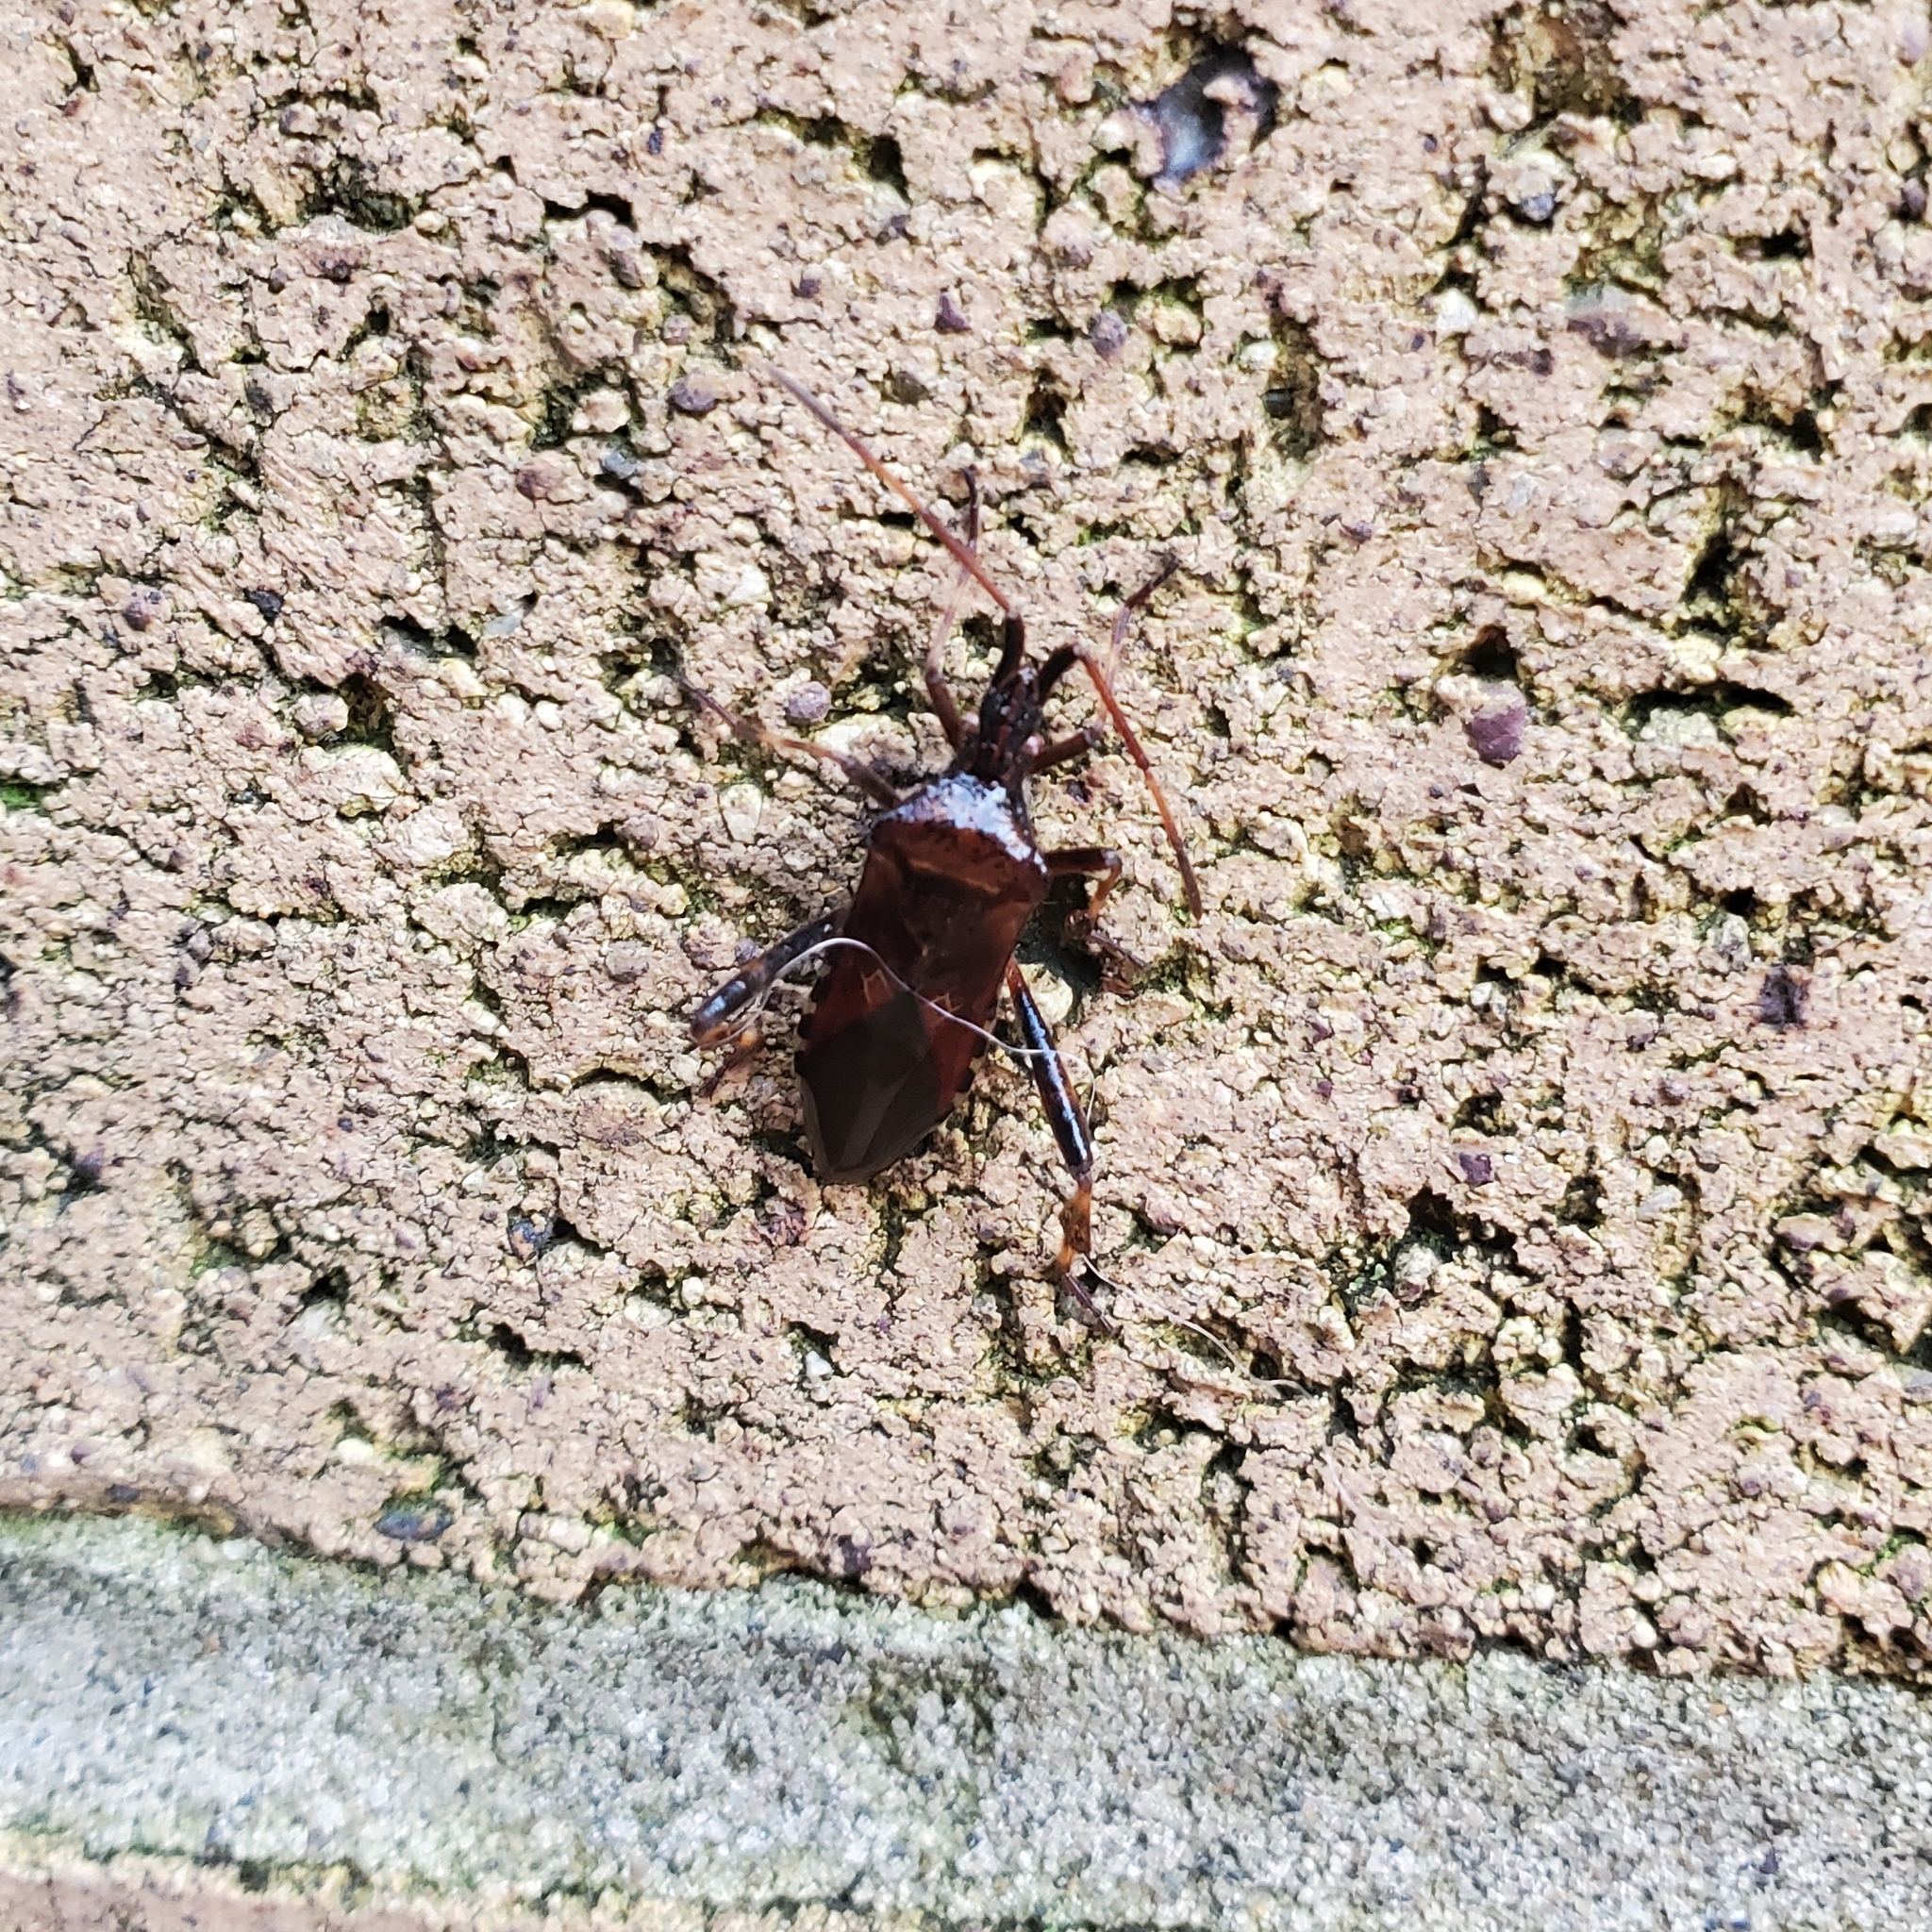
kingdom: Animalia
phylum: Arthropoda
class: Insecta
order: Hemiptera
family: Coreidae
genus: Leptoglossus
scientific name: Leptoglossus occidentalis
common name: Western conifer-seed bug
